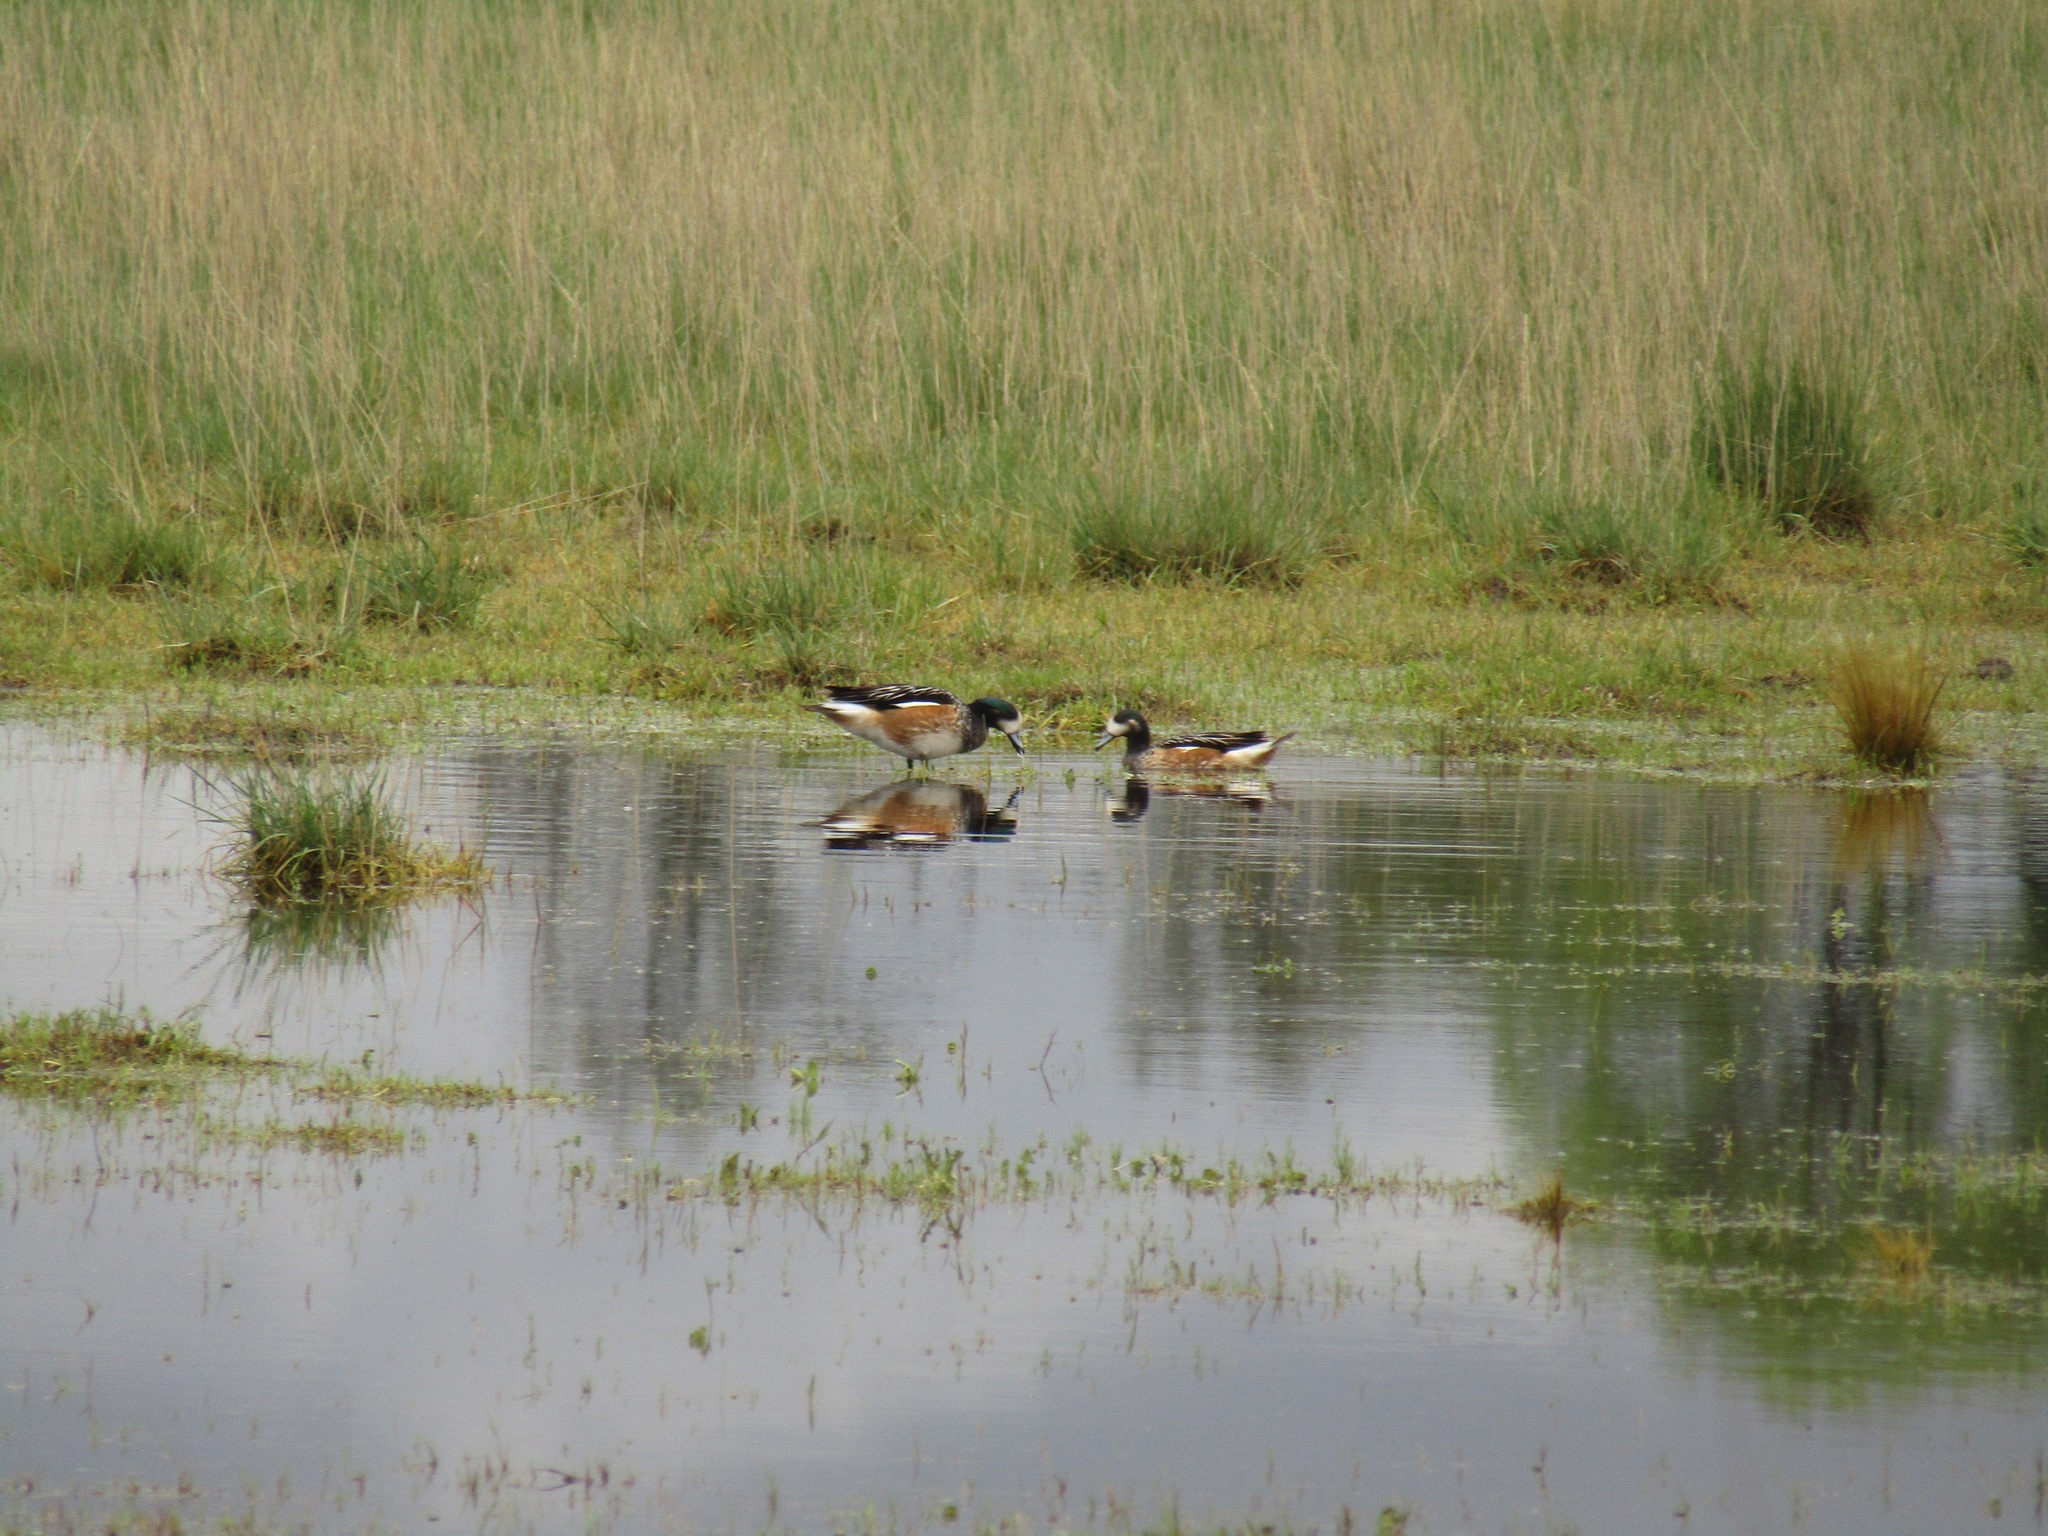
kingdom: Animalia
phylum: Chordata
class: Aves
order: Anseriformes
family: Anatidae
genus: Mareca
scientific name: Mareca sibilatrix
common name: Chiloe wigeon
